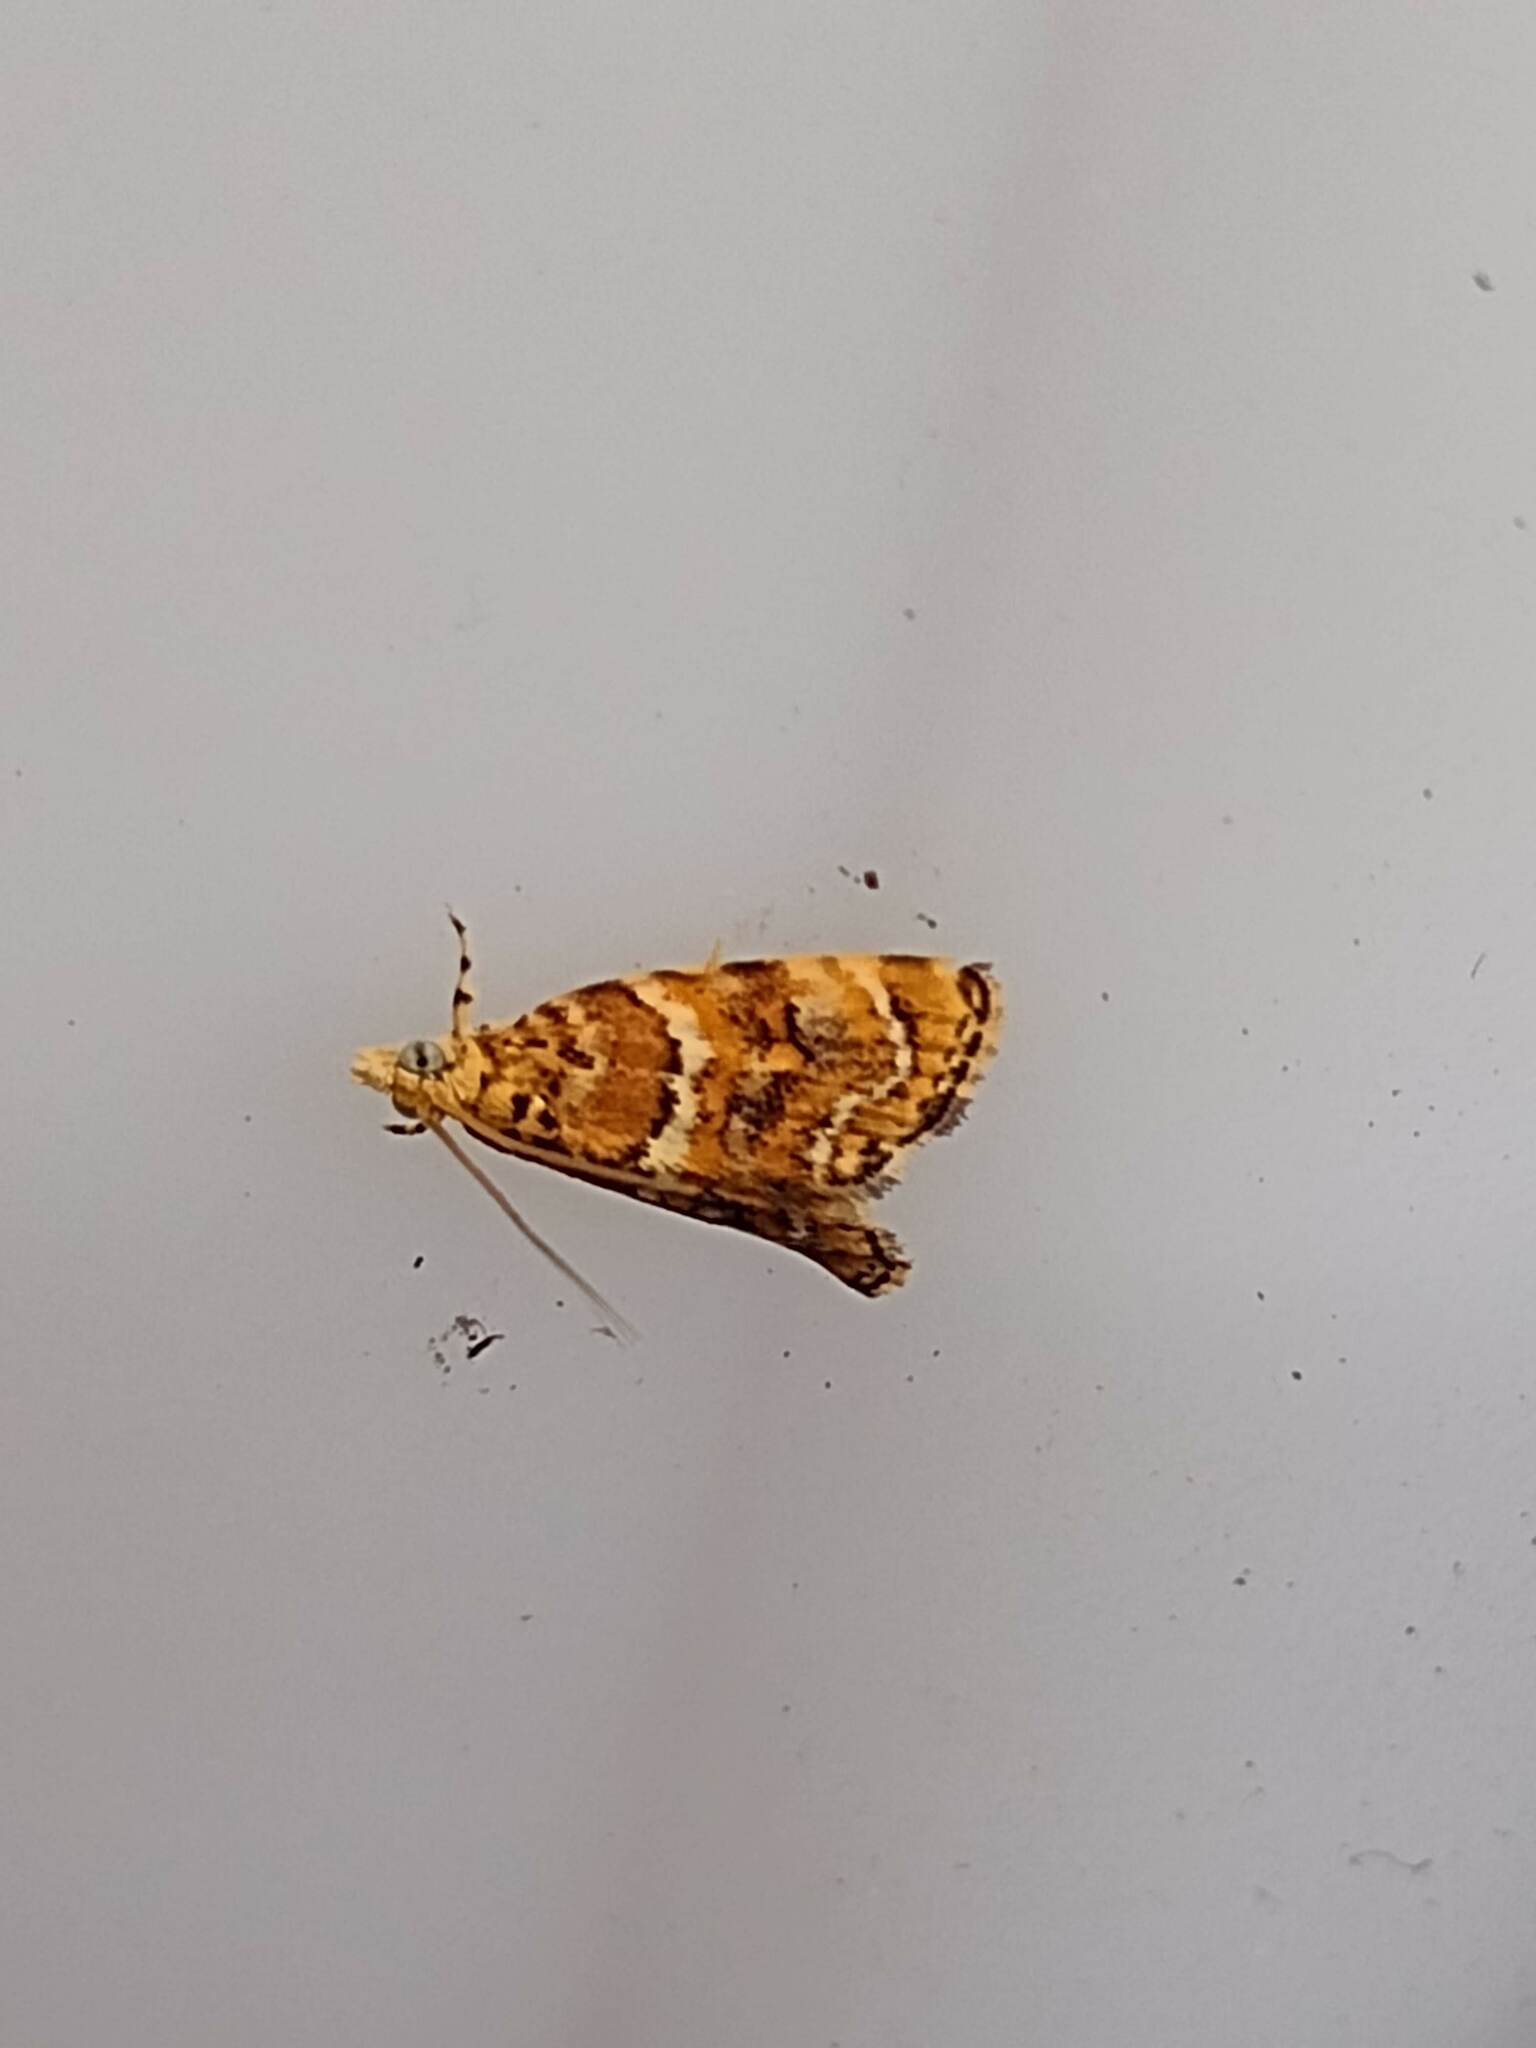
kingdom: Animalia
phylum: Arthropoda
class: Insecta
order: Lepidoptera
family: Crambidae
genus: Mestolobes
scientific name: Mestolobes perixantha
